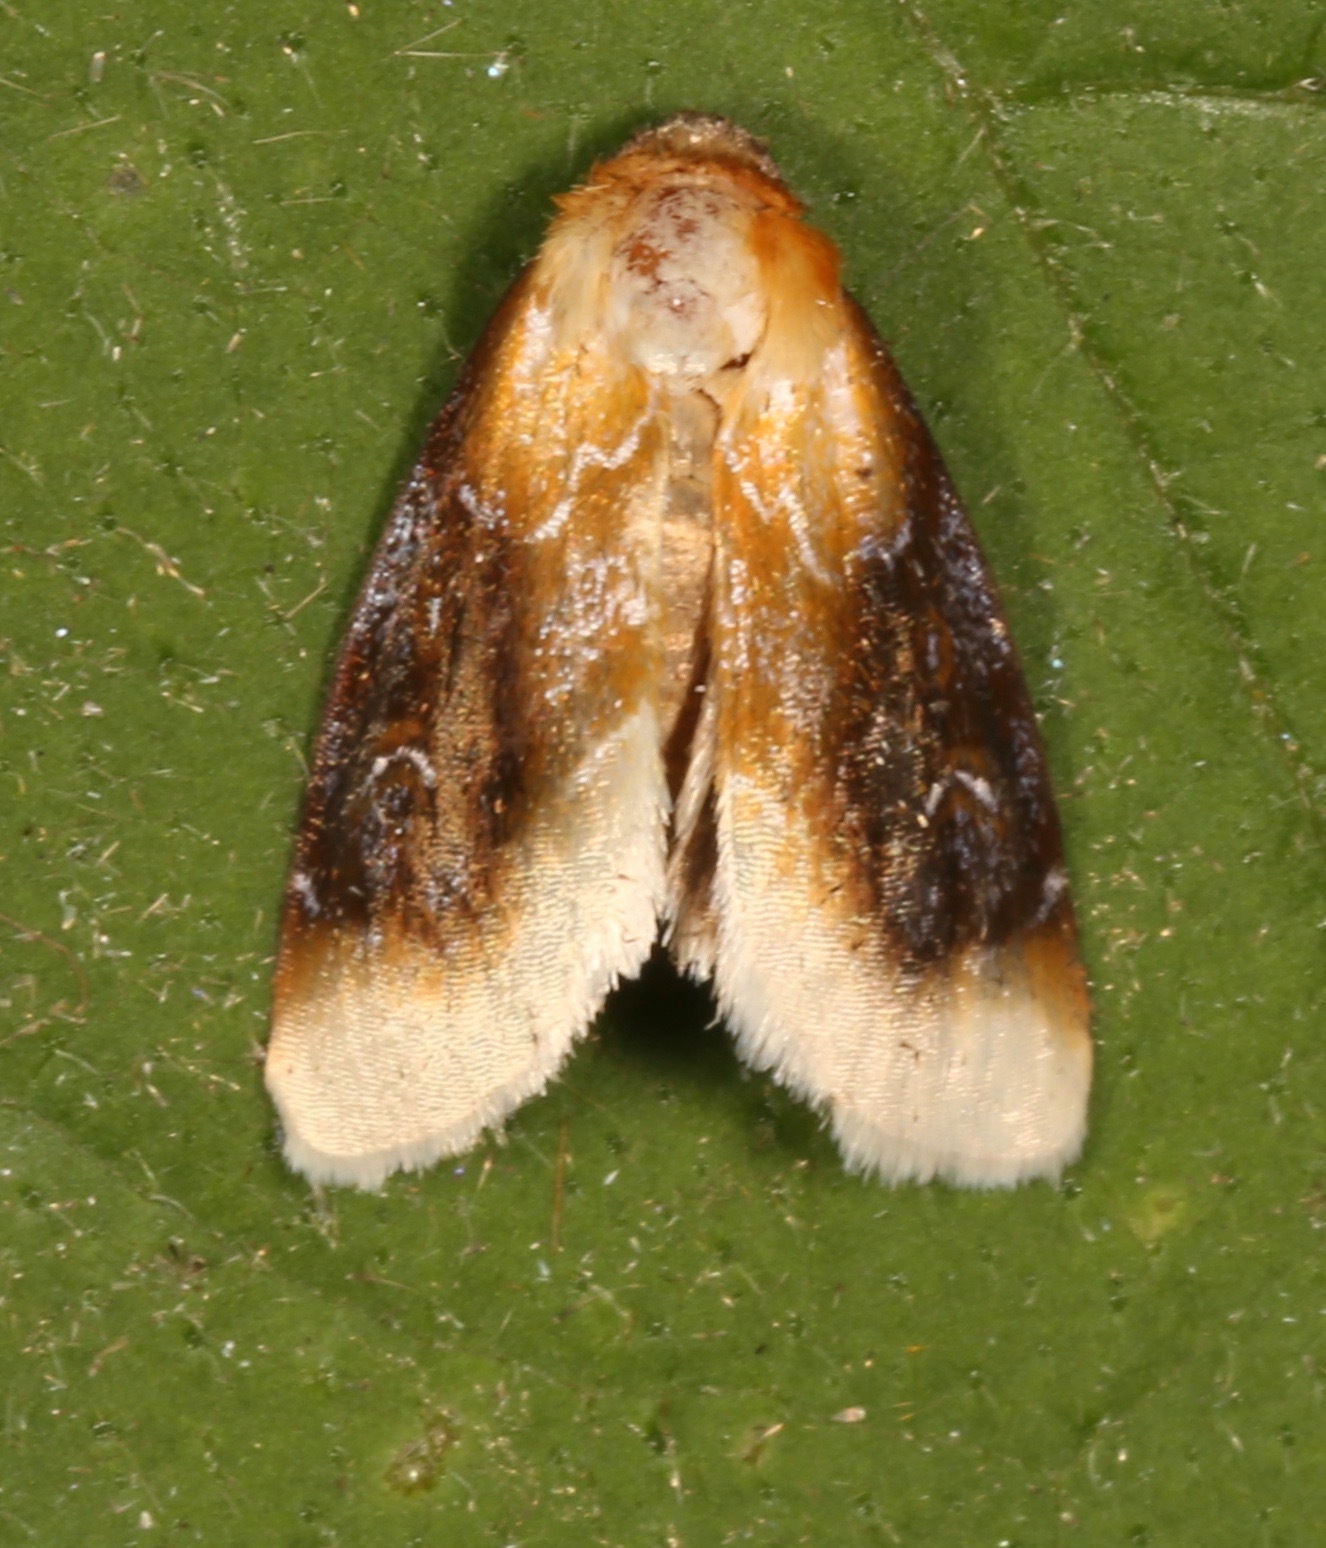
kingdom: Animalia
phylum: Arthropoda
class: Insecta
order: Lepidoptera
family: Noctuidae
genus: Chrysoecia
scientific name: Chrysoecia scira
